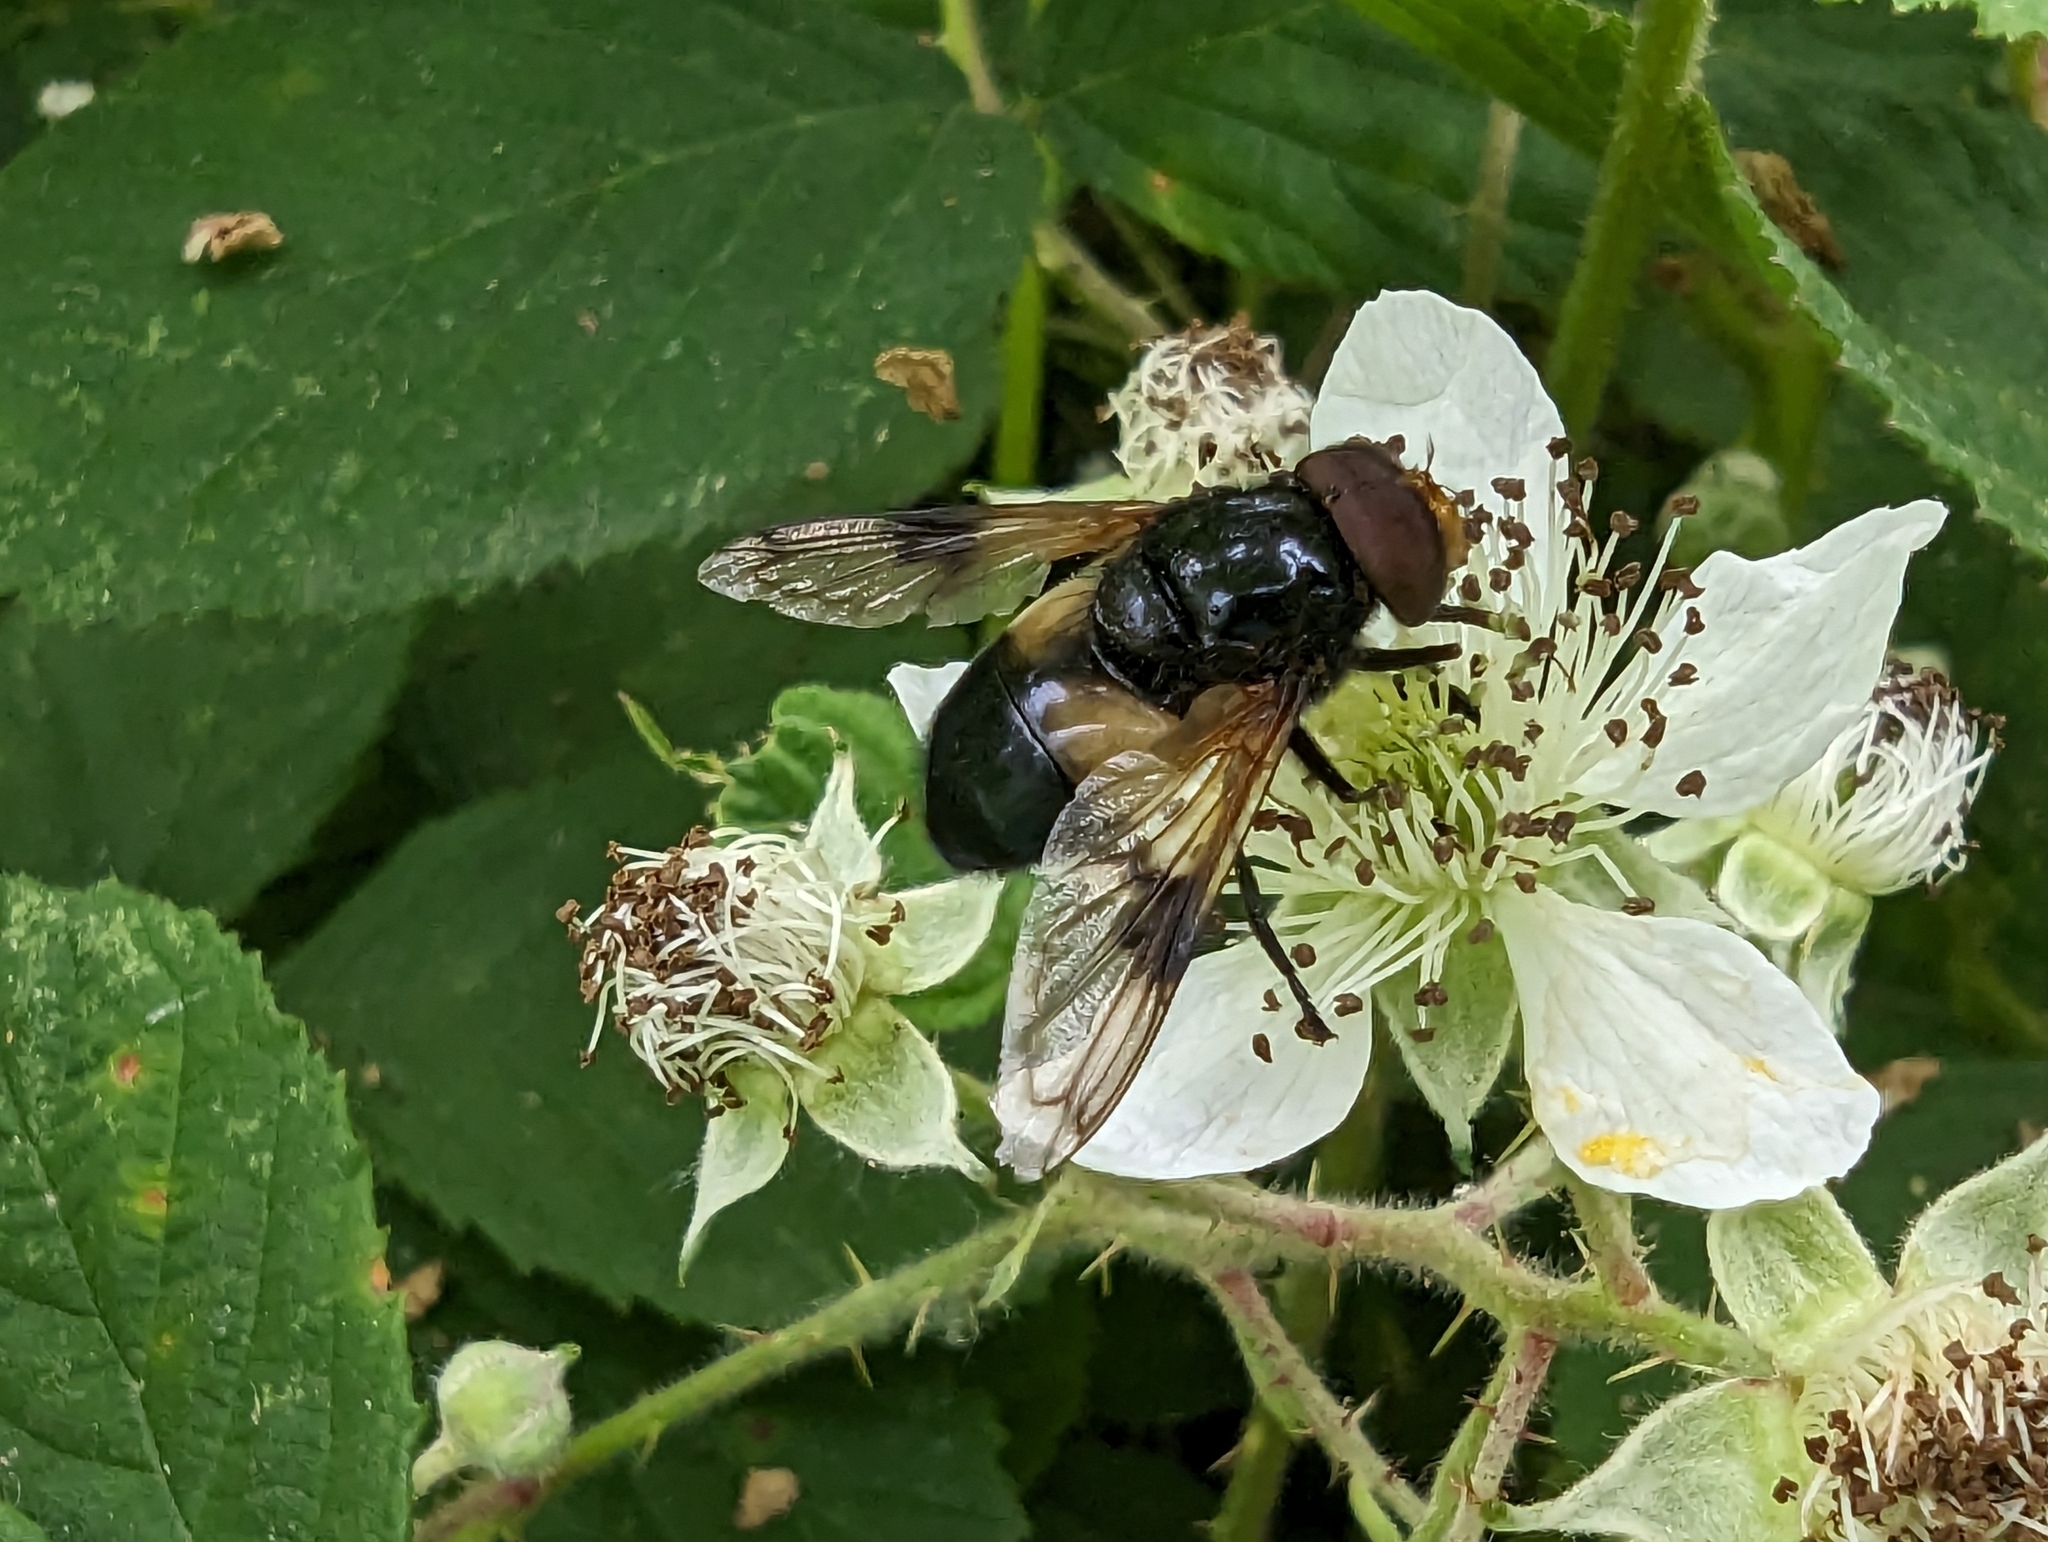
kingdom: Animalia
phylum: Arthropoda
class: Insecta
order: Diptera
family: Syrphidae
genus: Volucella
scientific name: Volucella pellucens
